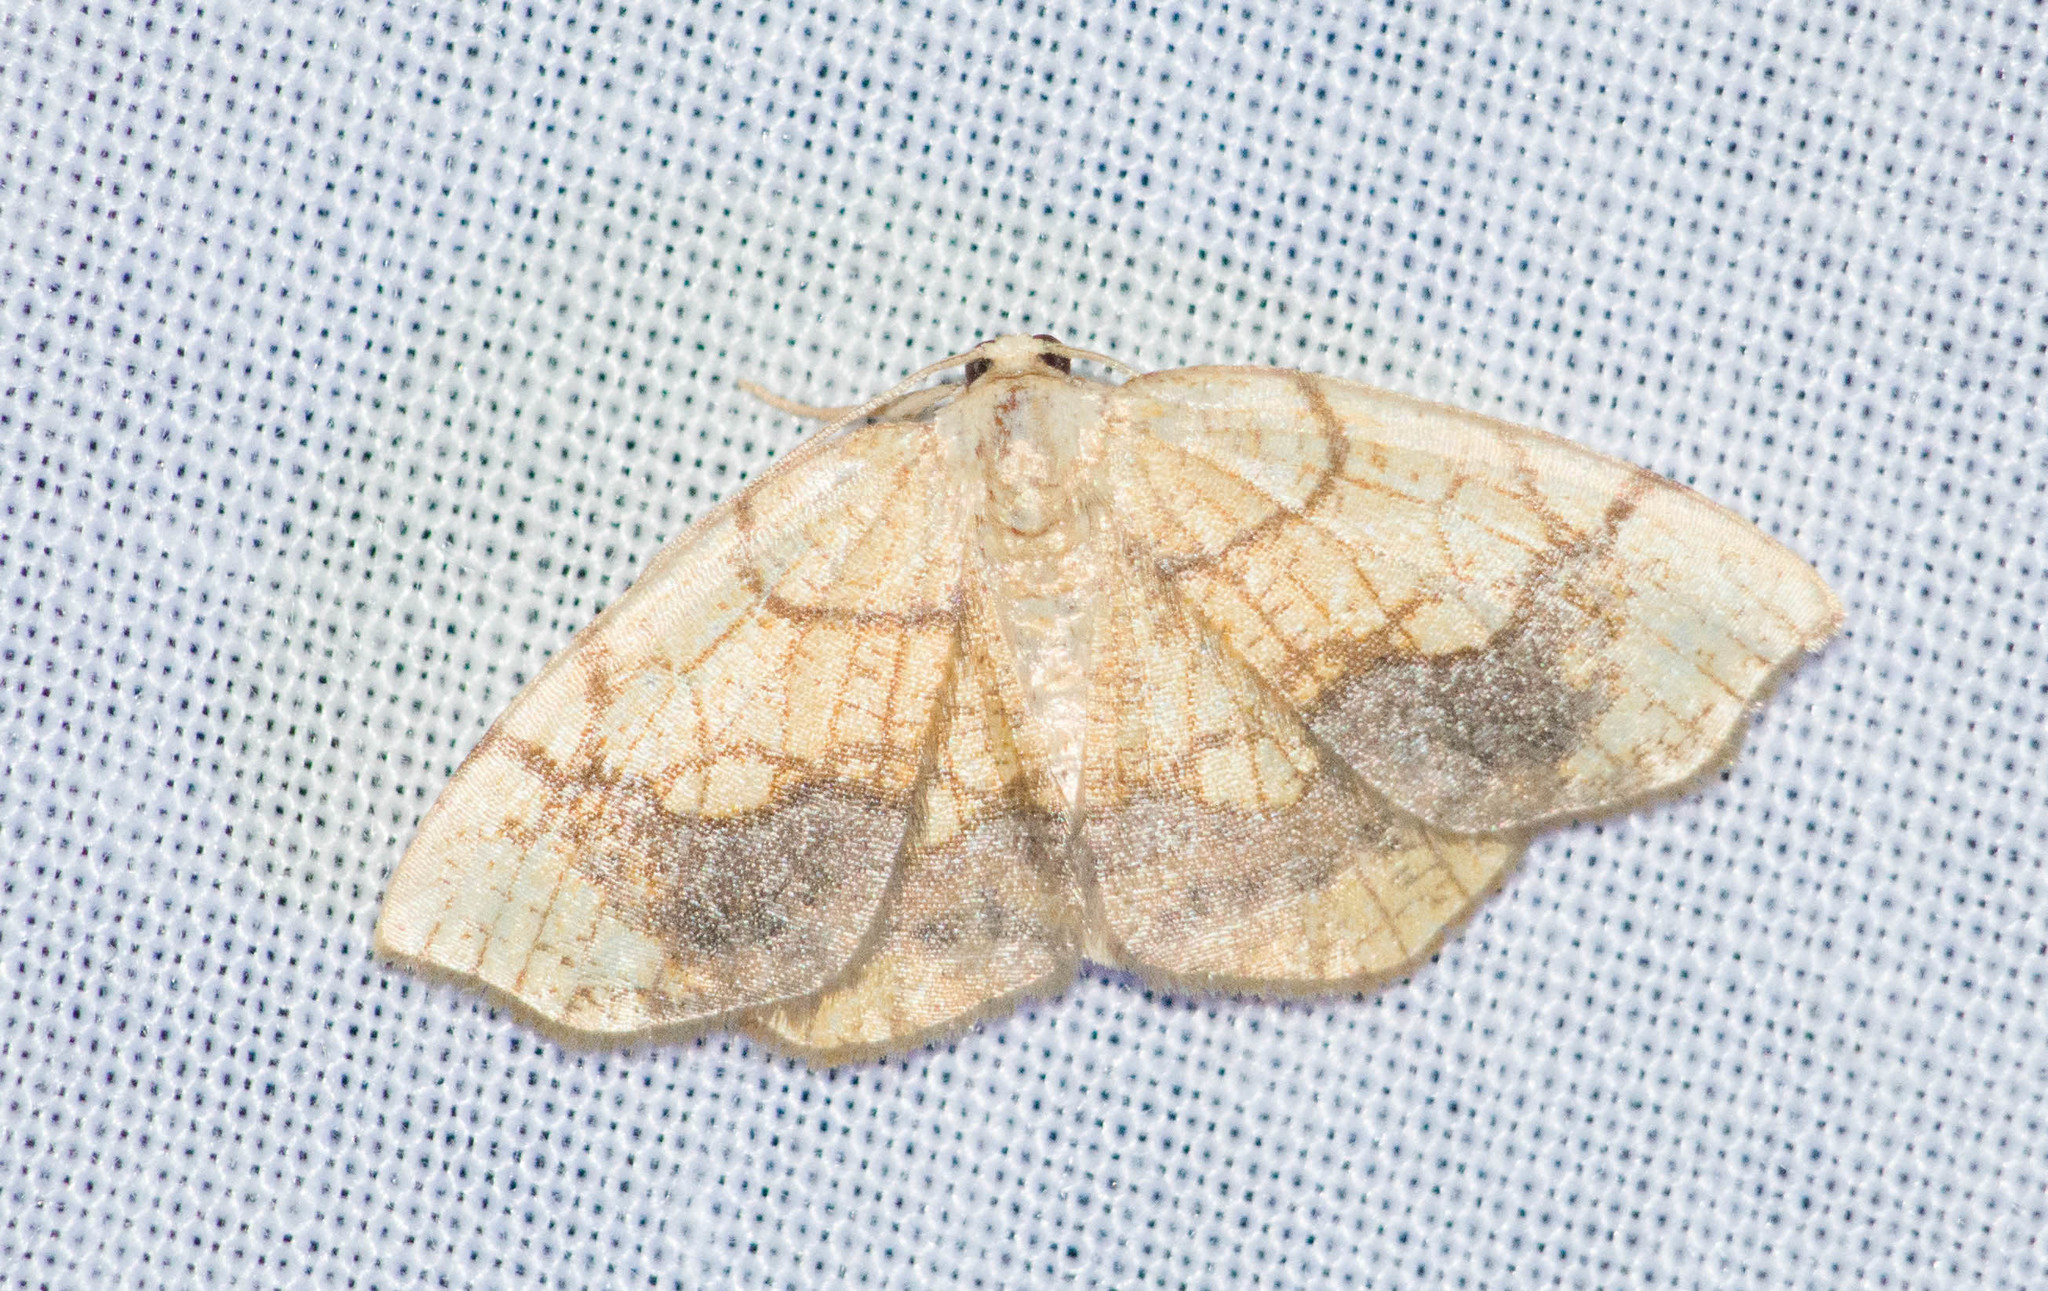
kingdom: Animalia
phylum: Arthropoda
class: Insecta
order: Lepidoptera
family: Geometridae
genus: Nematocampa
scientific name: Nematocampa resistaria
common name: Horned spanworm moth
